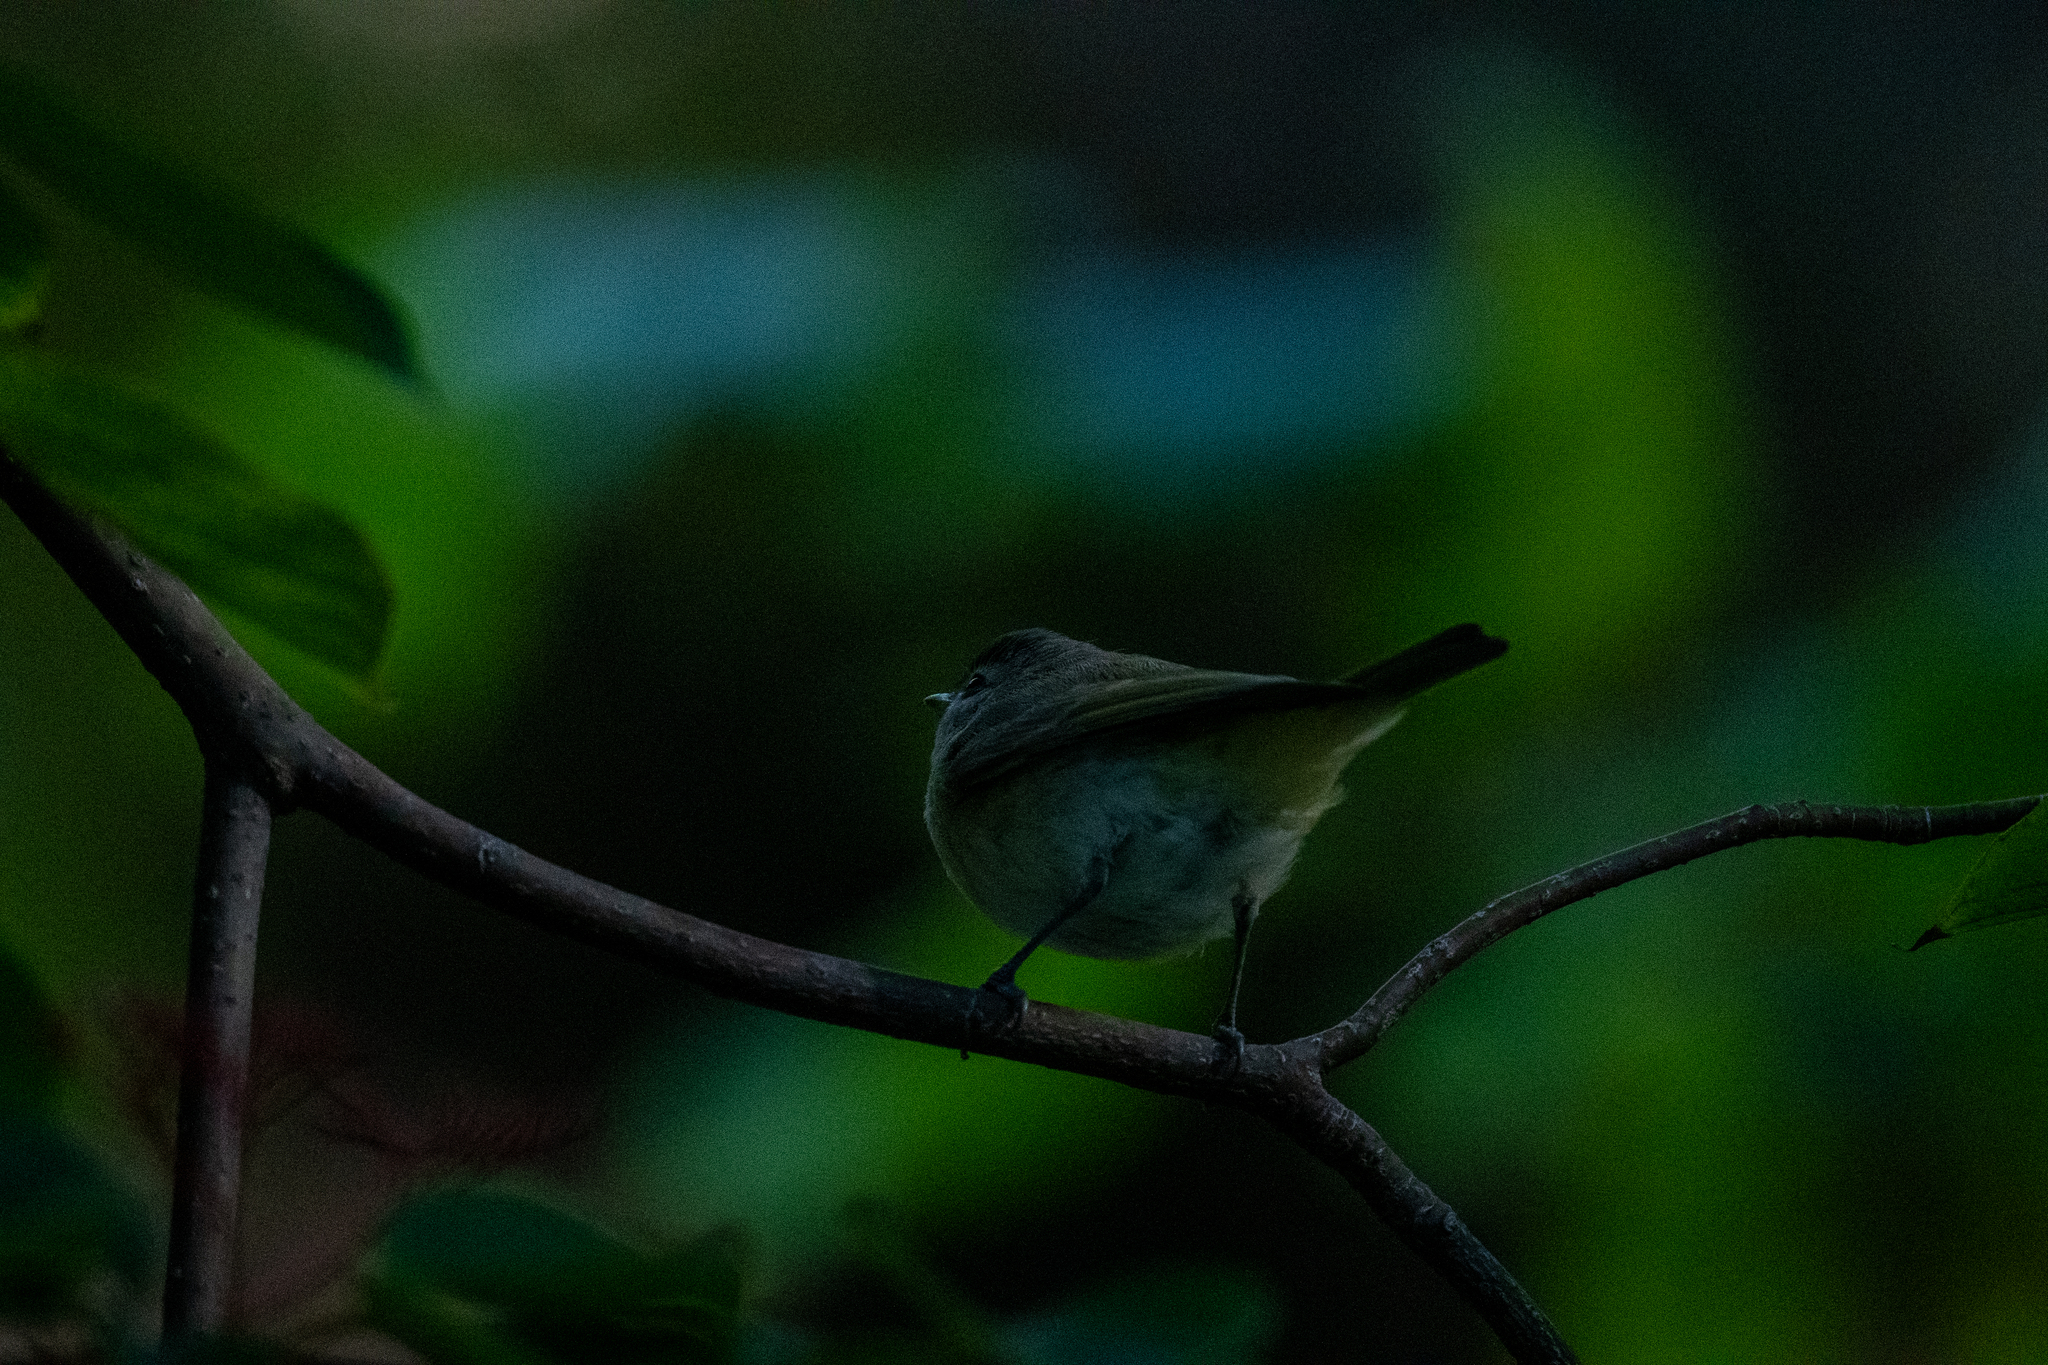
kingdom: Animalia
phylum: Chordata
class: Aves
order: Passeriformes
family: Vireonidae
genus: Vireo
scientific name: Vireo gilvus
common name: Warbling vireo
